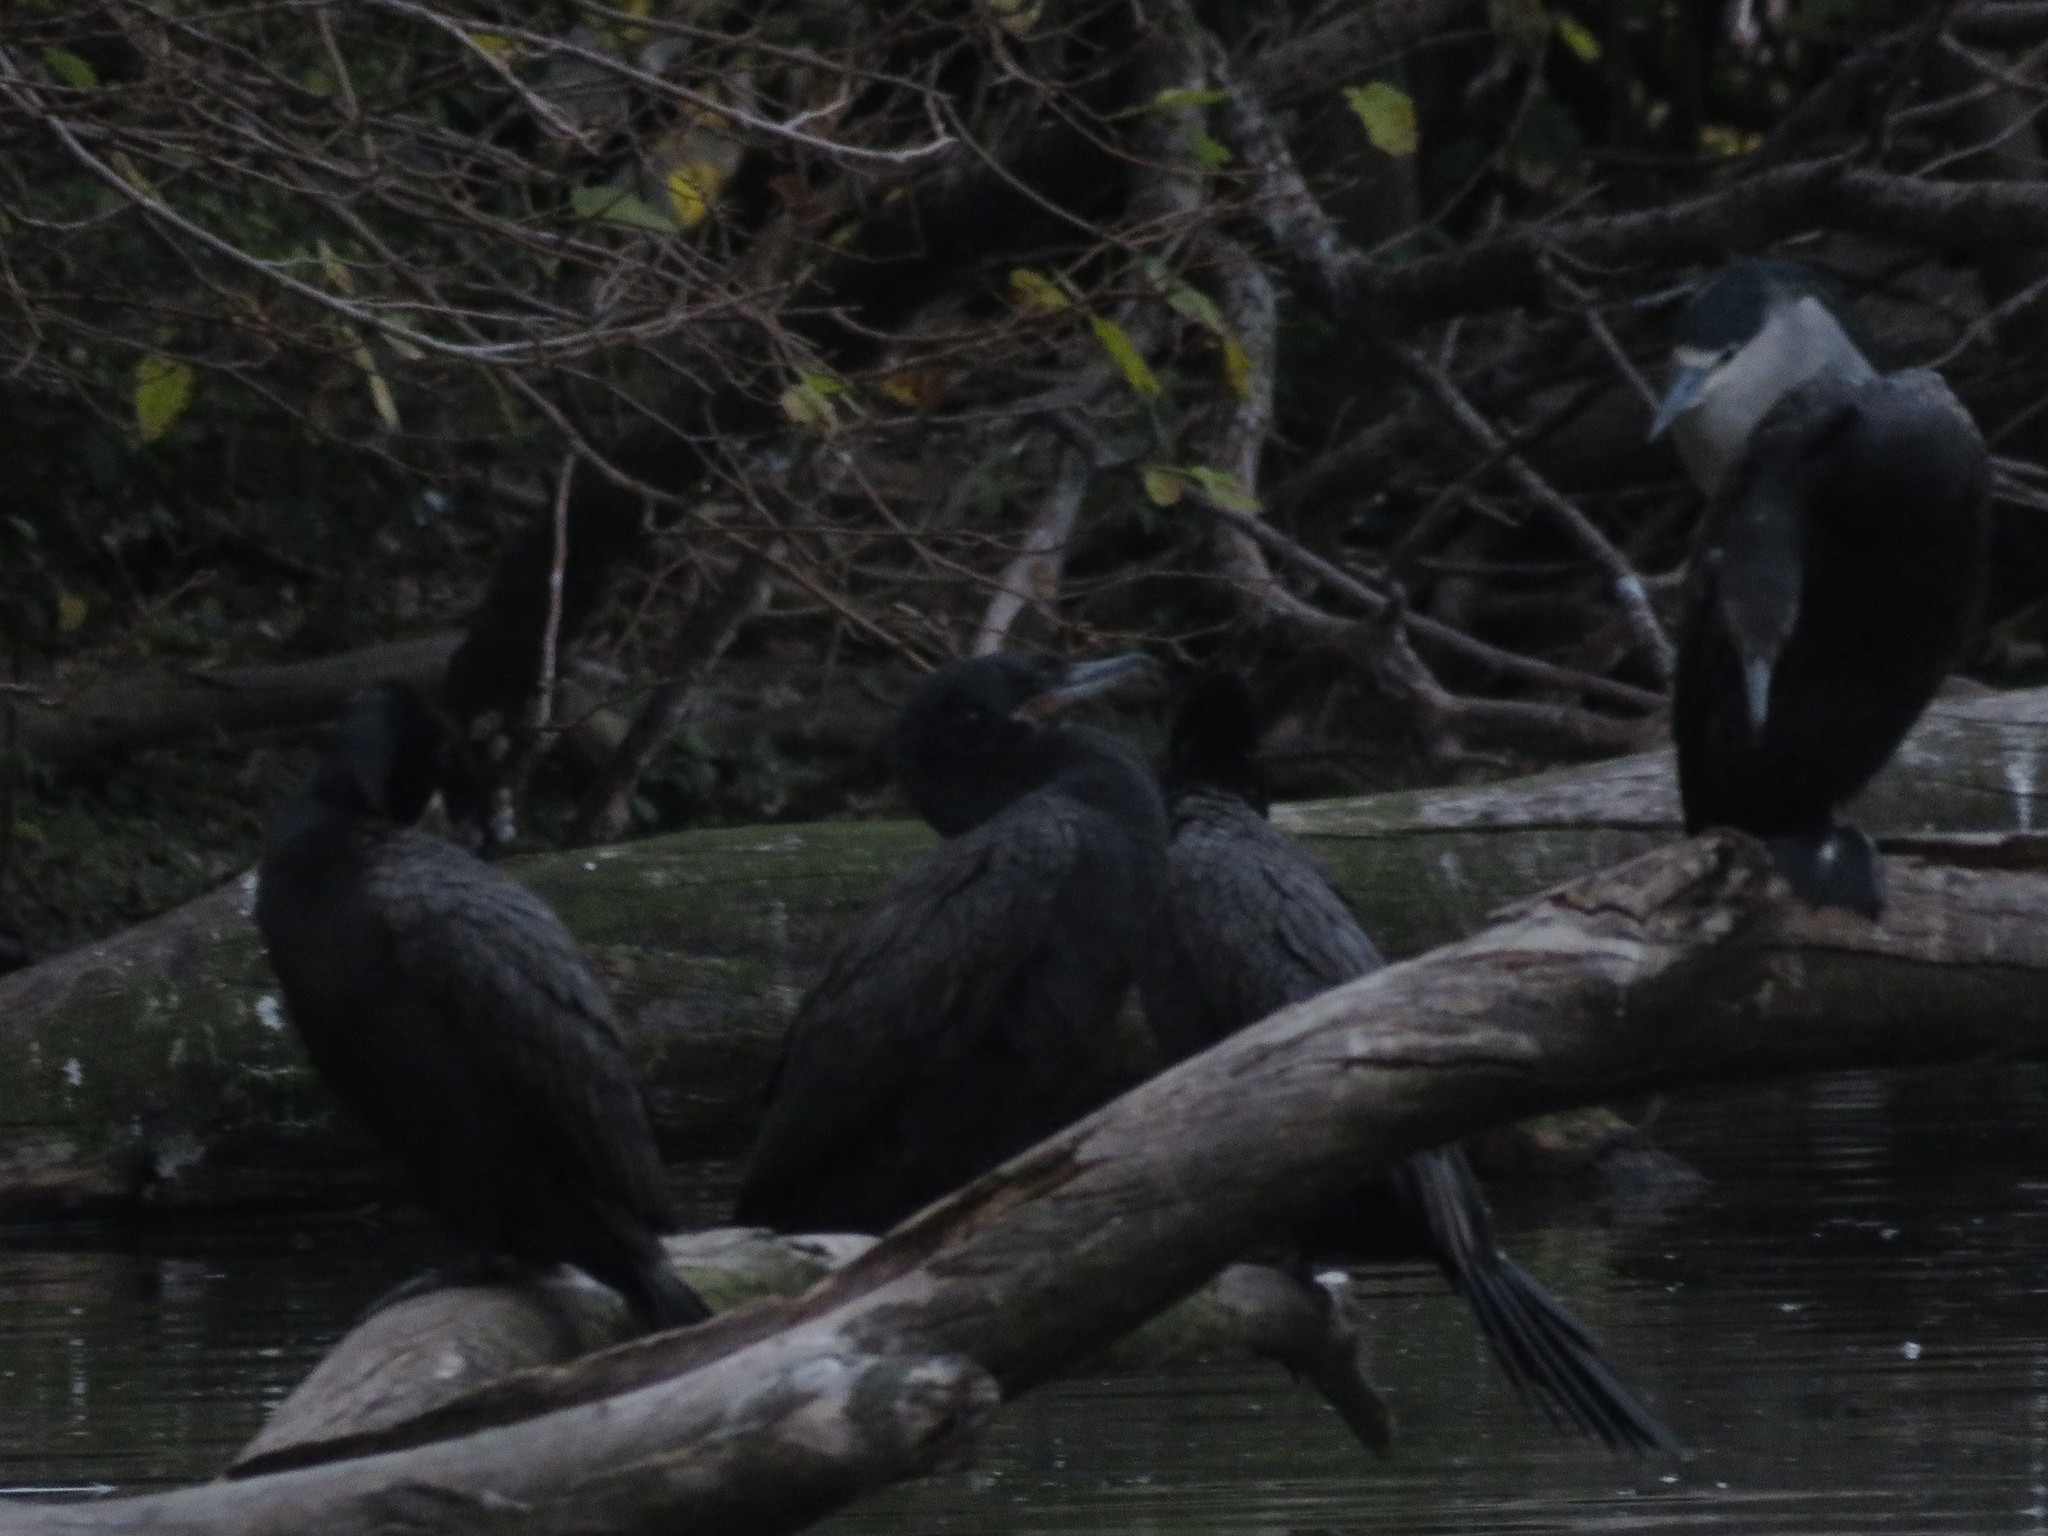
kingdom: Animalia
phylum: Chordata
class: Aves
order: Suliformes
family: Phalacrocoracidae
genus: Phalacrocorax
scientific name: Phalacrocorax brasilianus
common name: Neotropic cormorant
